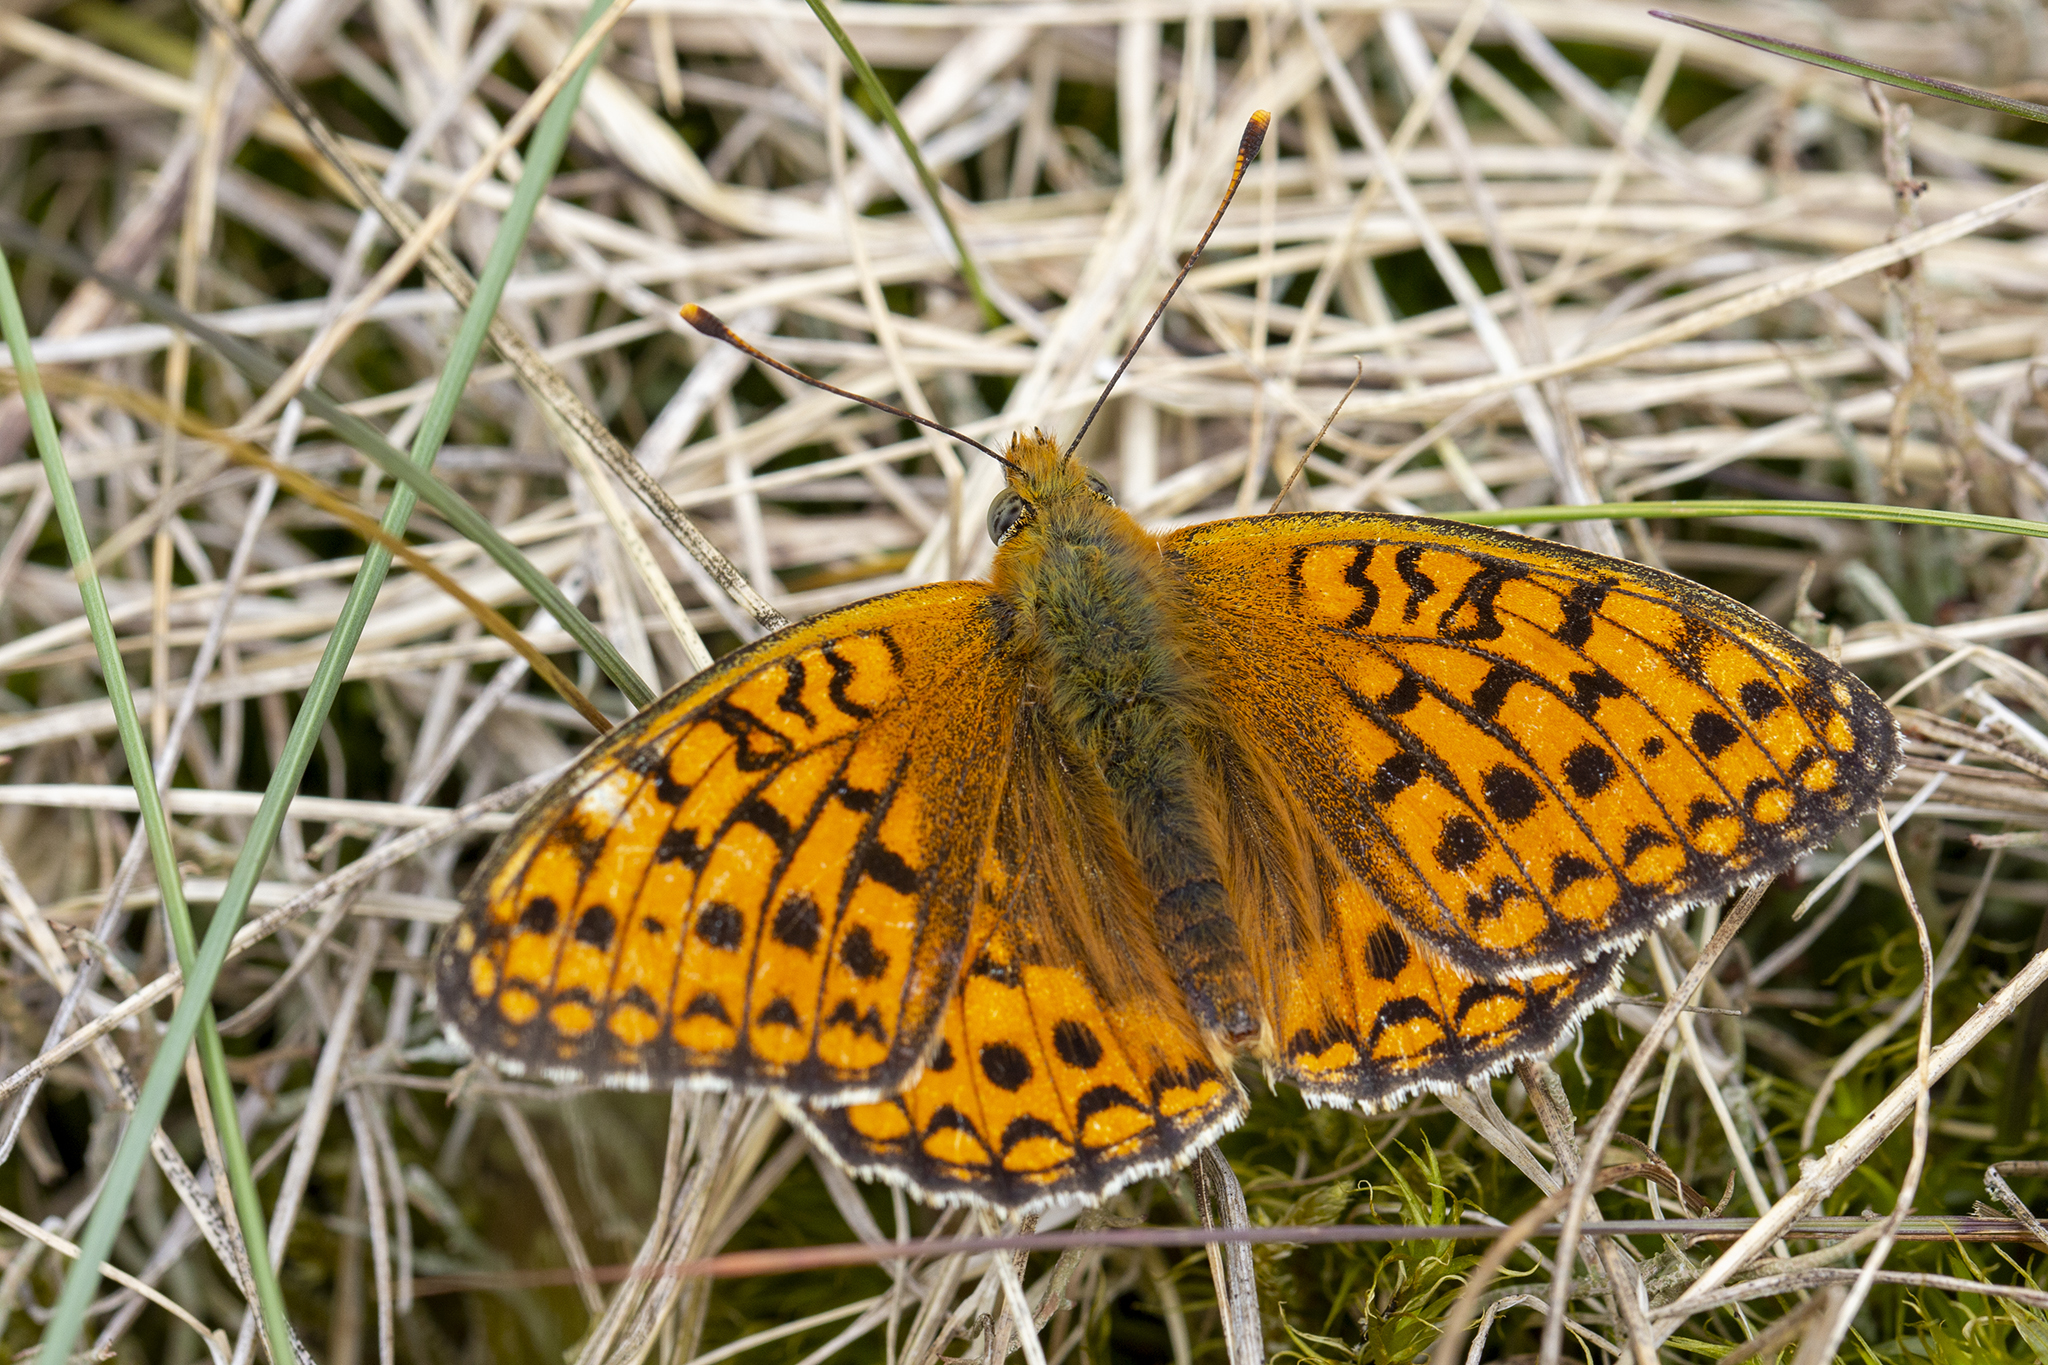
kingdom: Animalia
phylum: Arthropoda
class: Insecta
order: Lepidoptera
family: Nymphalidae
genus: Fabriciana
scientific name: Fabriciana niobe
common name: Niobe fritillary
